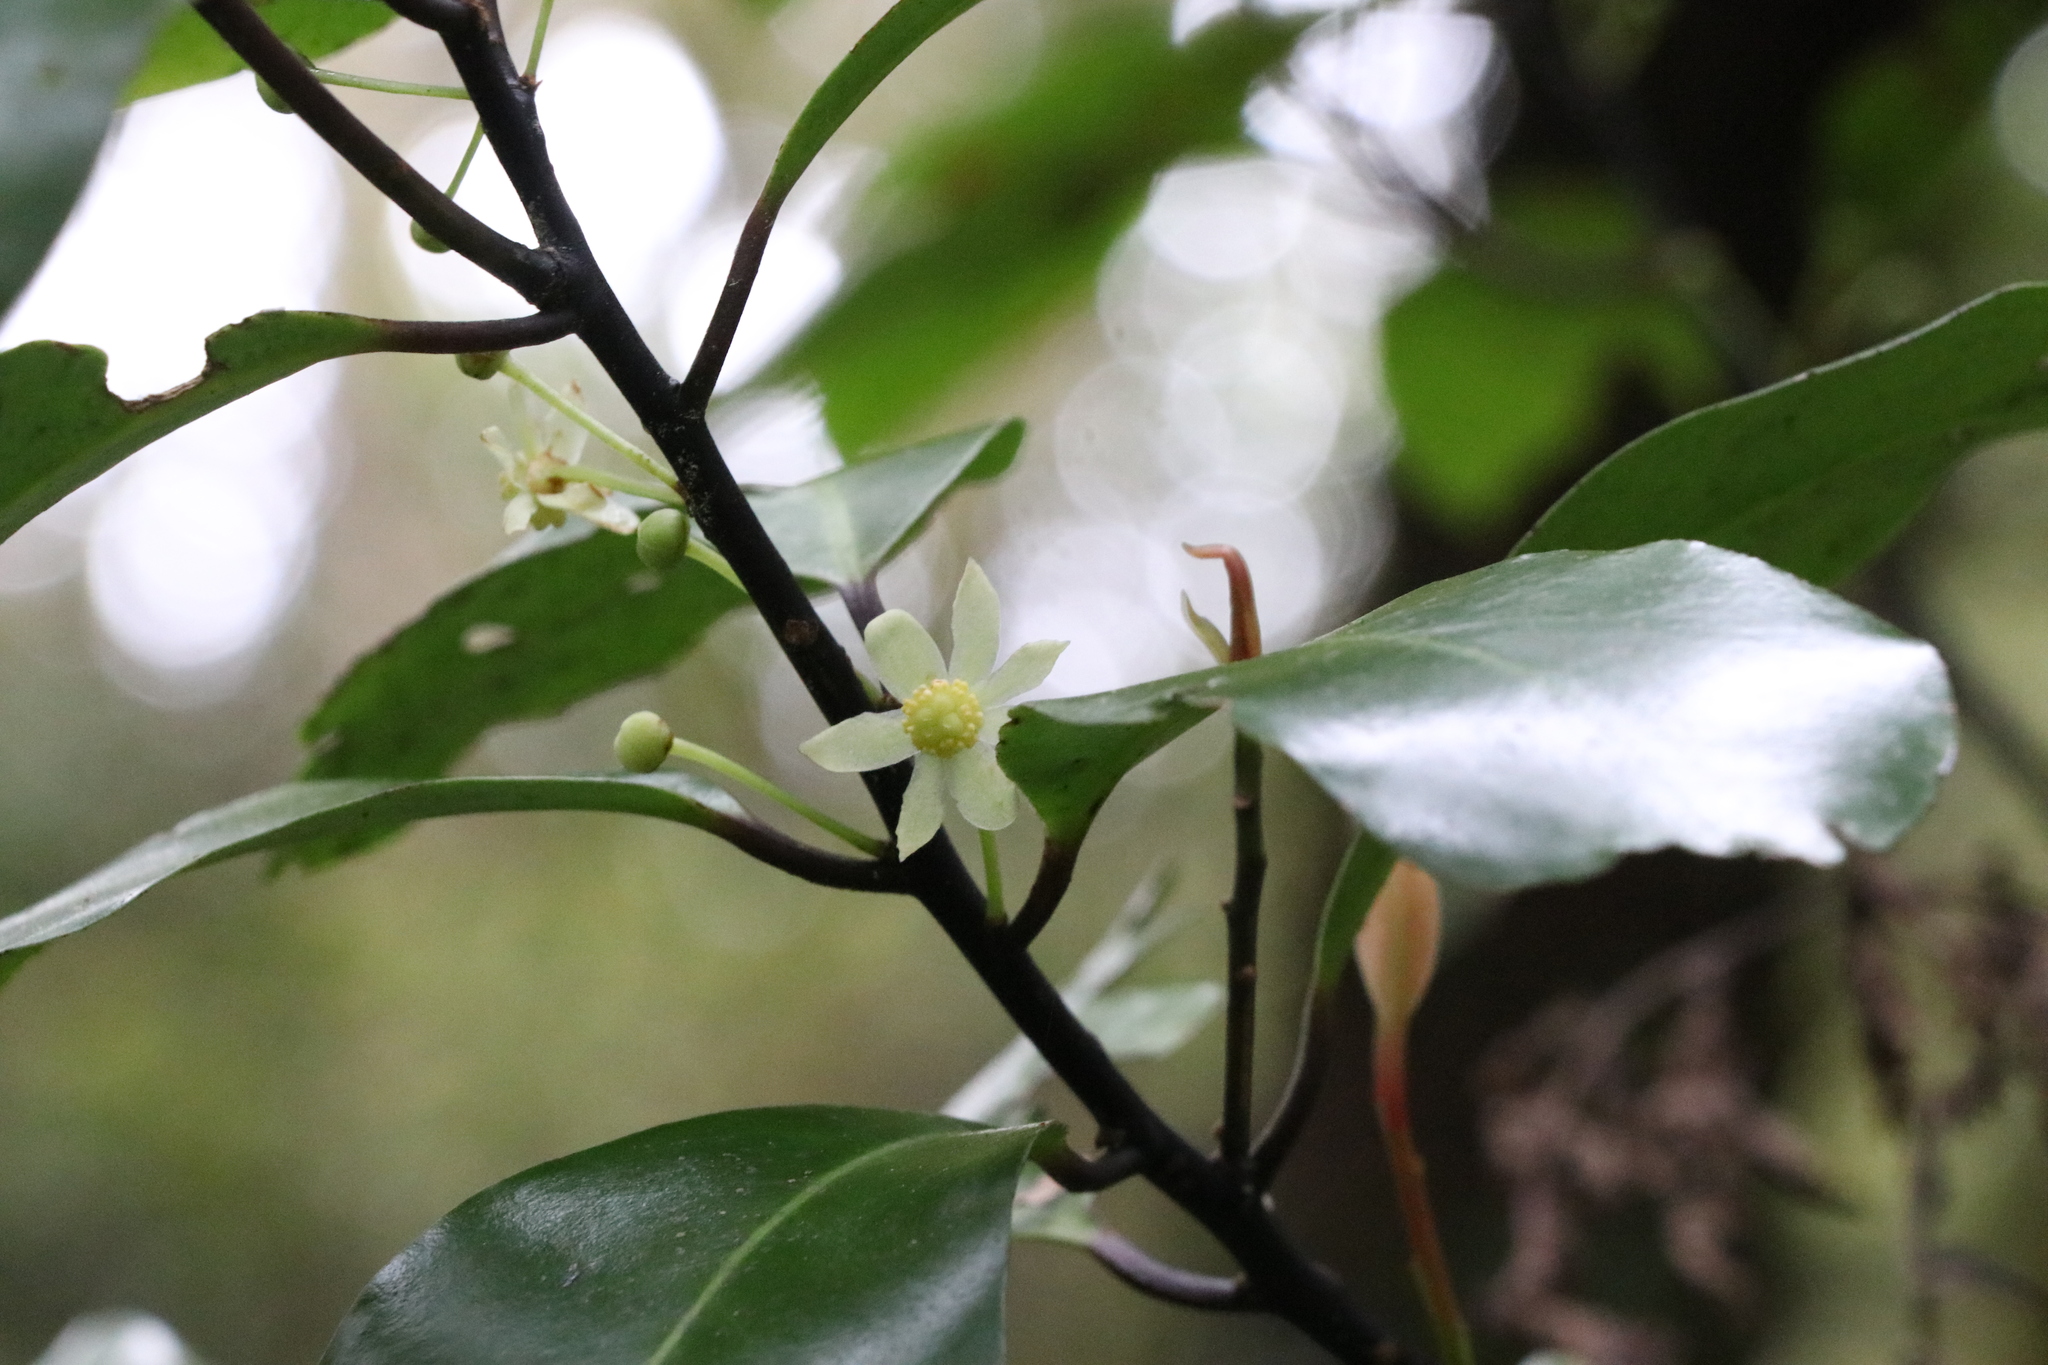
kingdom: Plantae
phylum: Tracheophyta
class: Magnoliopsida
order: Canellales
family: Winteraceae
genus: Pseudowintera
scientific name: Pseudowintera axillaris
